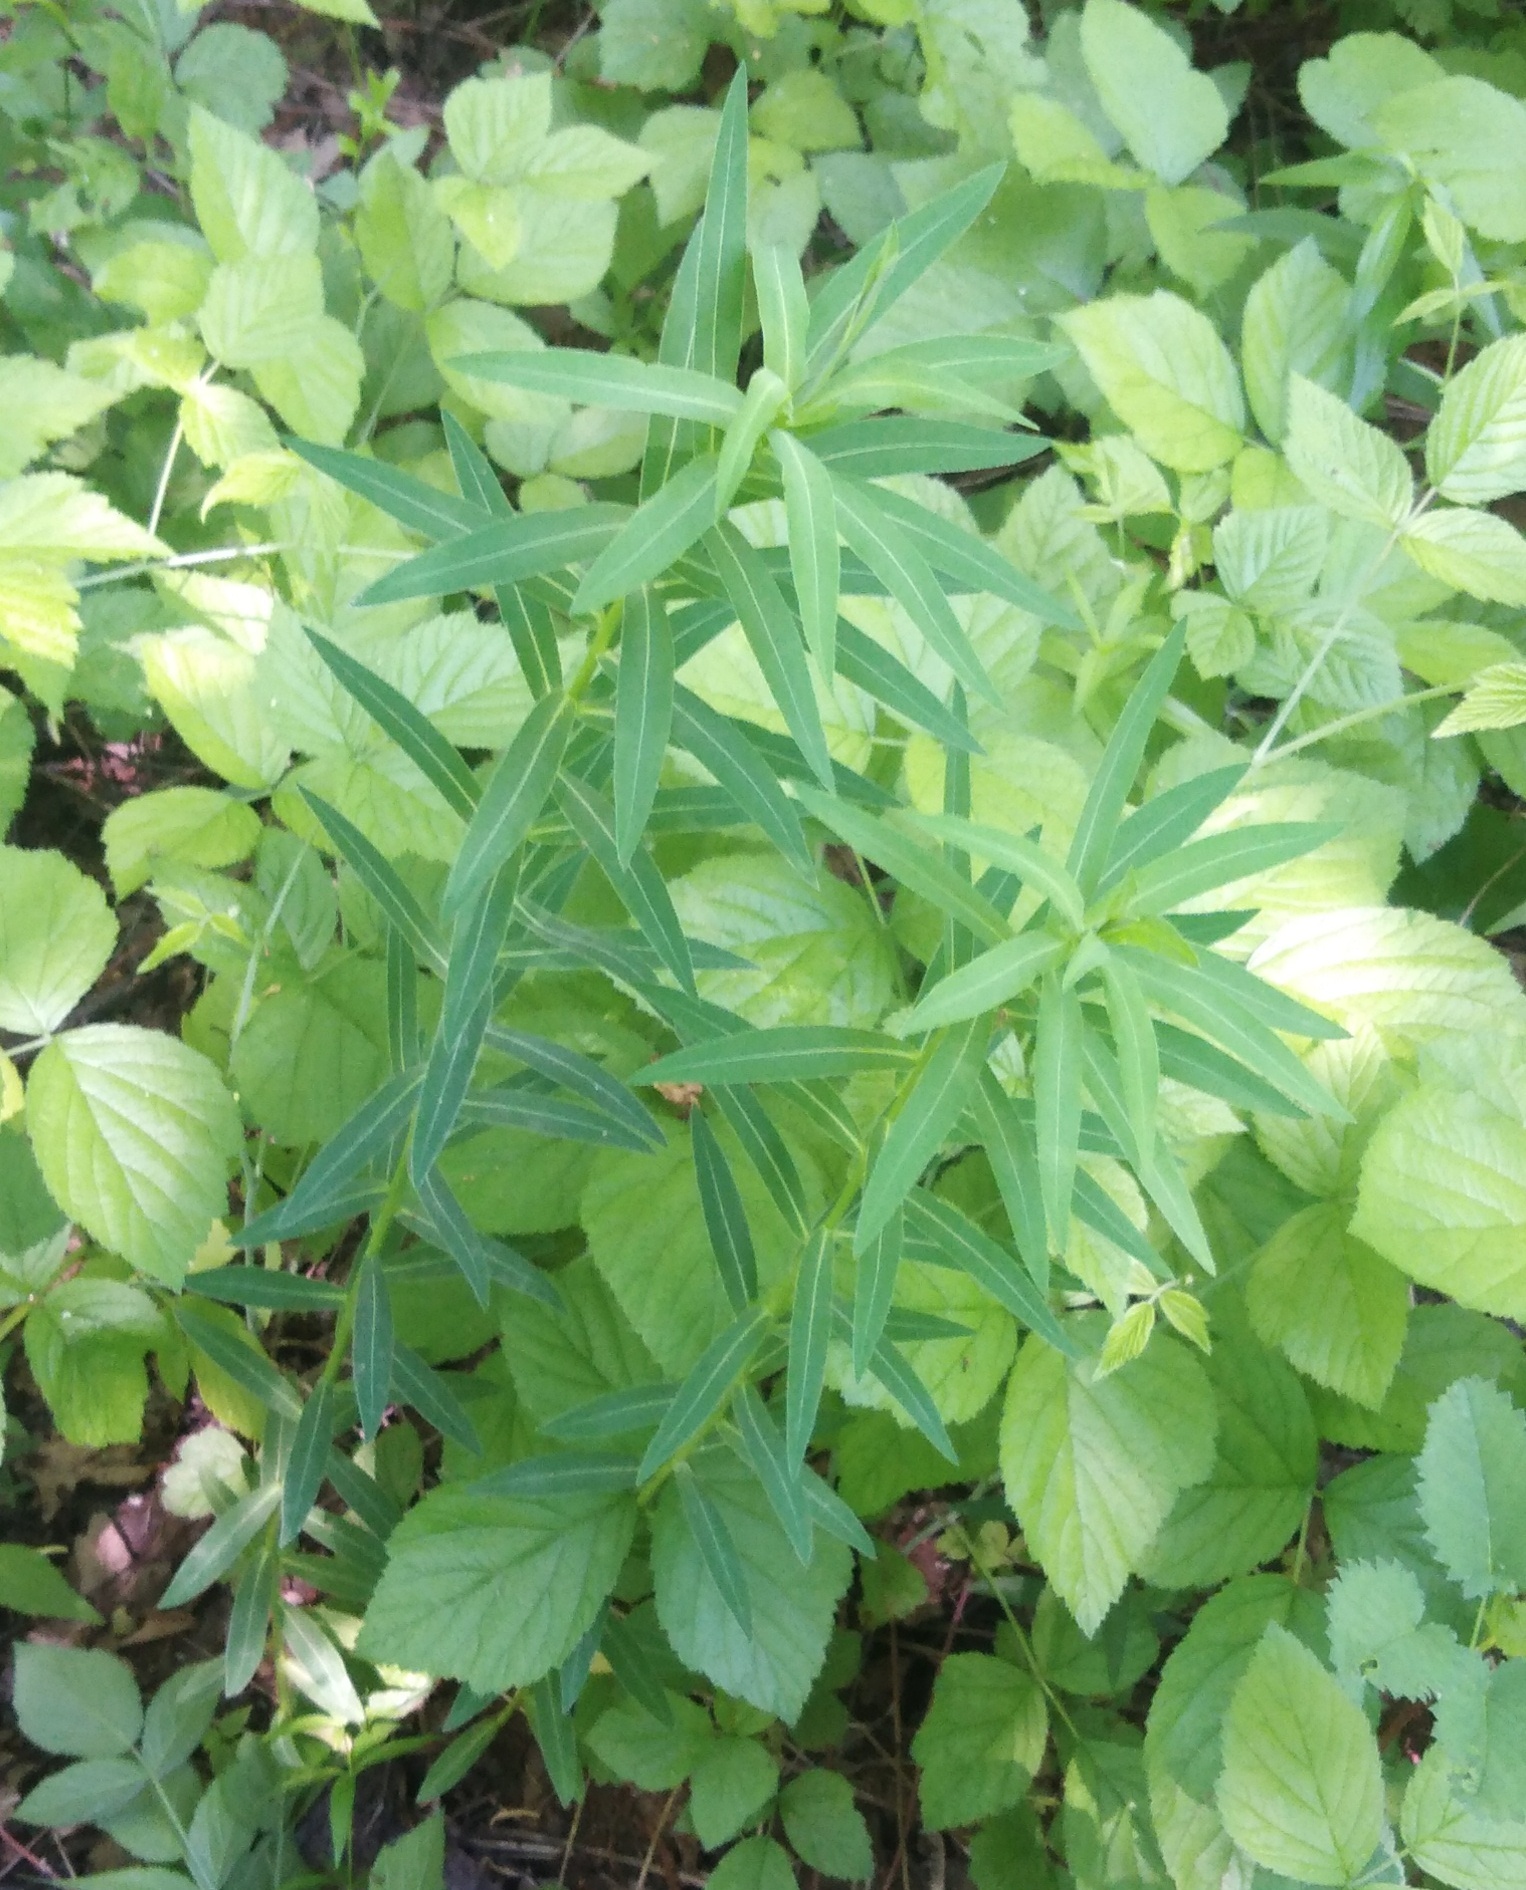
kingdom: Plantae
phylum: Tracheophyta
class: Magnoliopsida
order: Malpighiales
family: Euphorbiaceae
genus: Euphorbia
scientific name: Euphorbia virgata
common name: Leafy spurge
